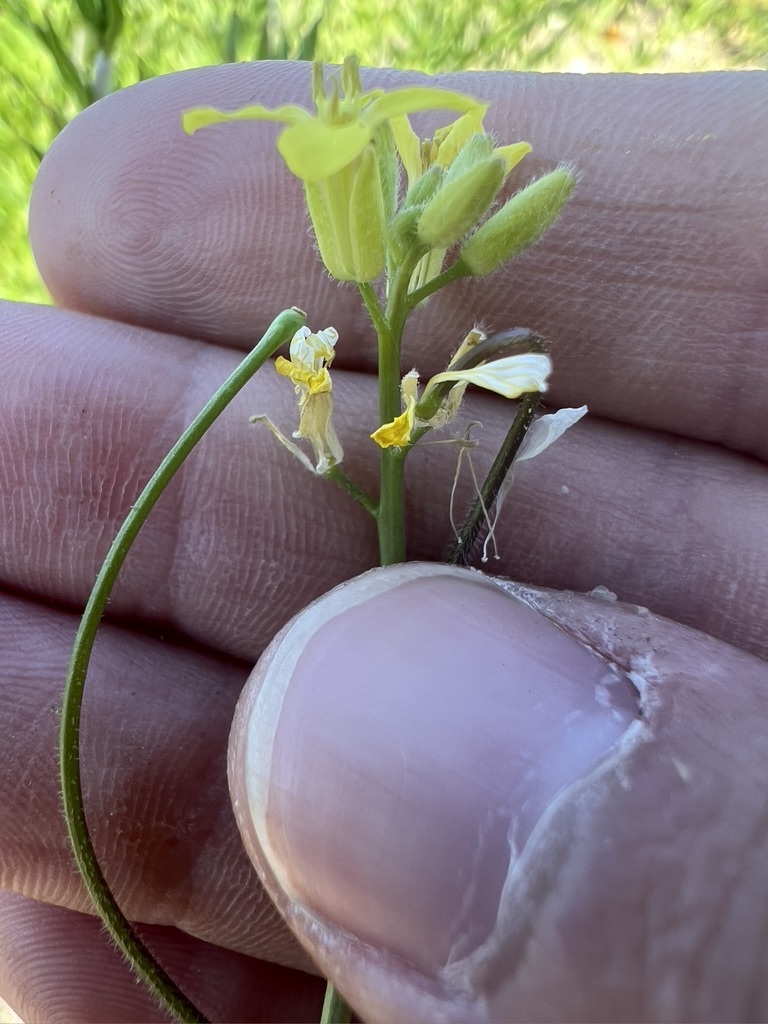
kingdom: Plantae
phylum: Tracheophyta
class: Magnoliopsida
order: Brassicales
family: Brassicaceae
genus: Sisymbrium
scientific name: Sisymbrium orientale
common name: Eastern rocket
